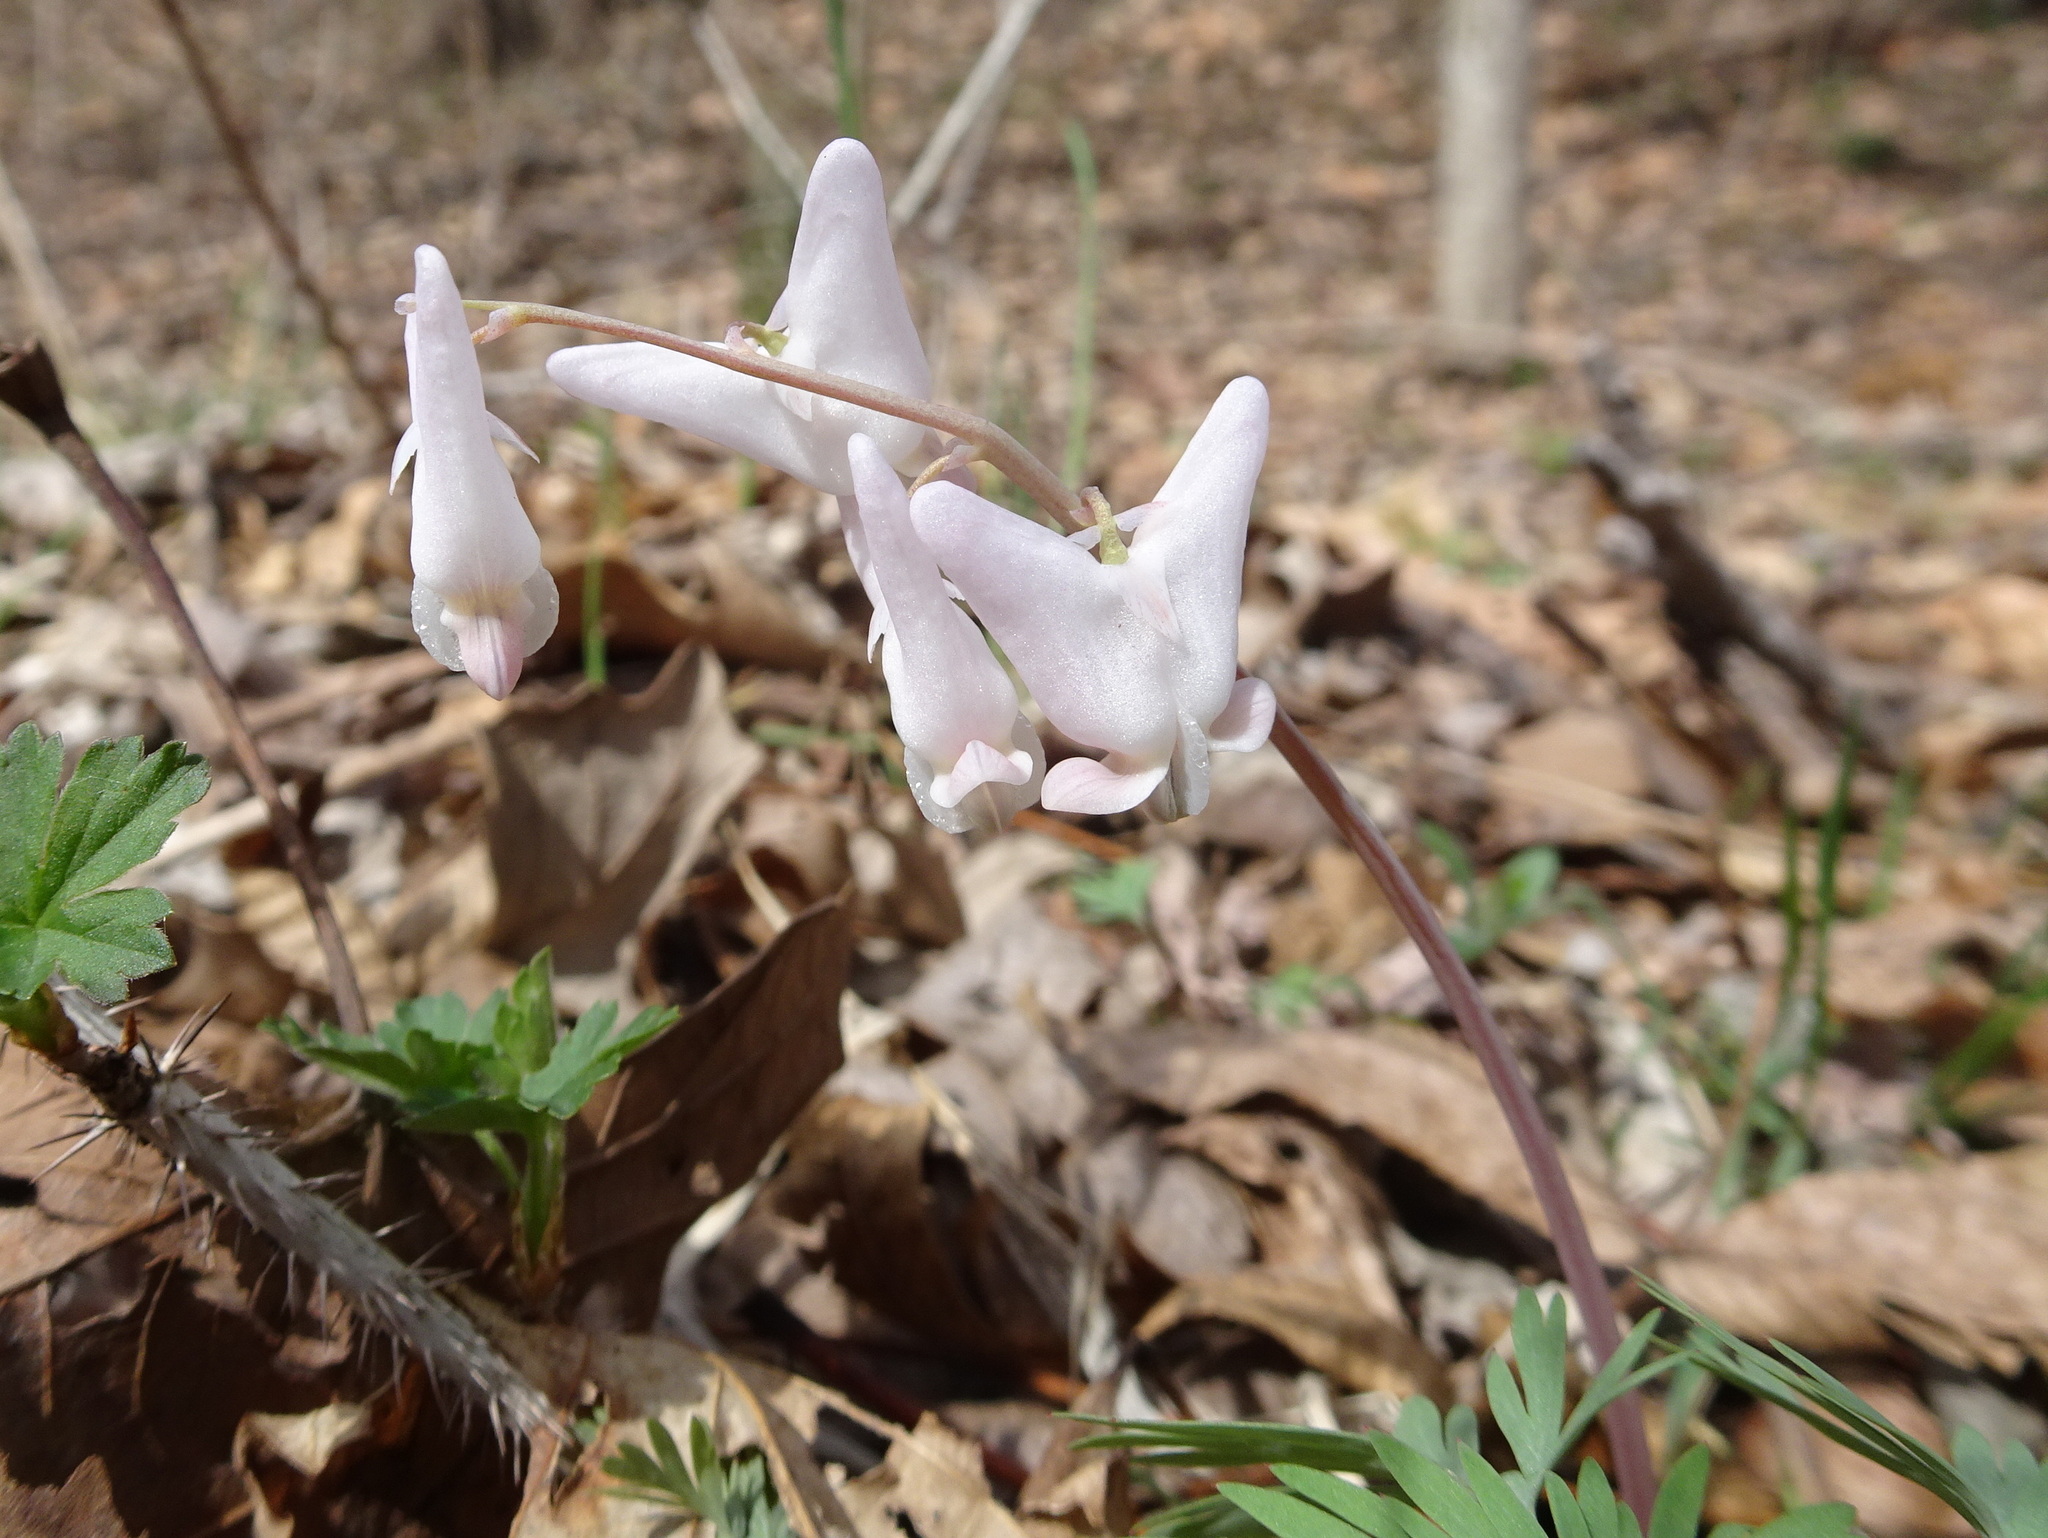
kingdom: Plantae
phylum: Tracheophyta
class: Magnoliopsida
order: Ranunculales
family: Papaveraceae
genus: Dicentra
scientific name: Dicentra cucullaria
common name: Dutchman's breeches
